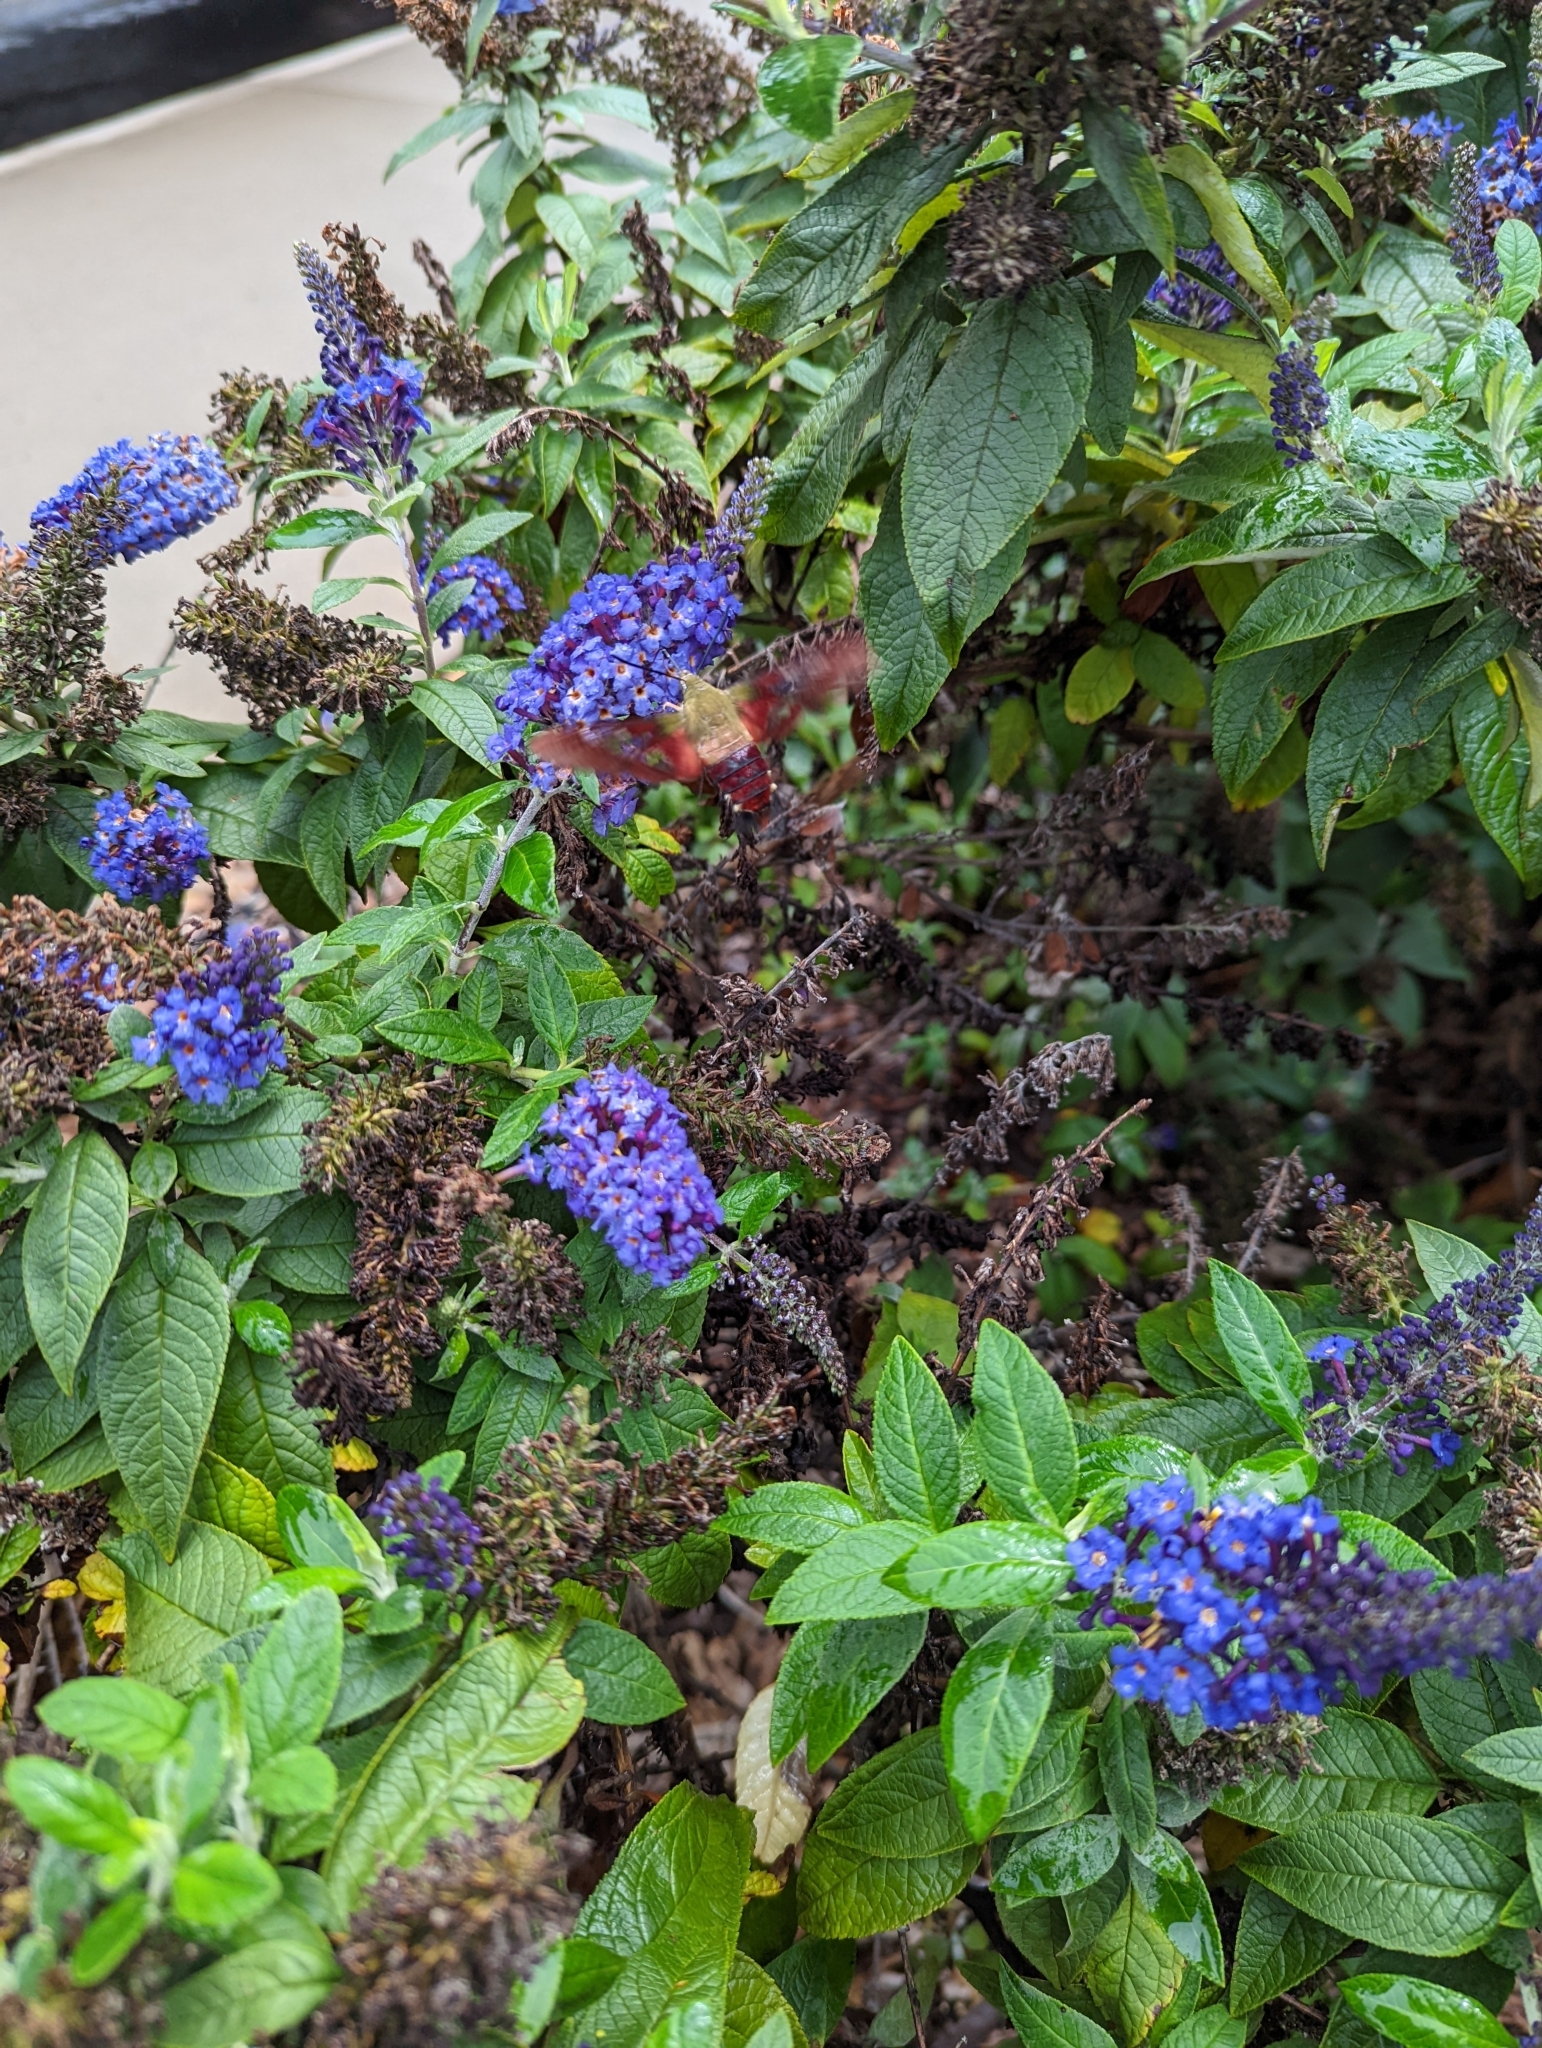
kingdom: Animalia
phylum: Arthropoda
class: Insecta
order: Lepidoptera
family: Sphingidae
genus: Hemaris
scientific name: Hemaris thysbe
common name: Common clear-wing
